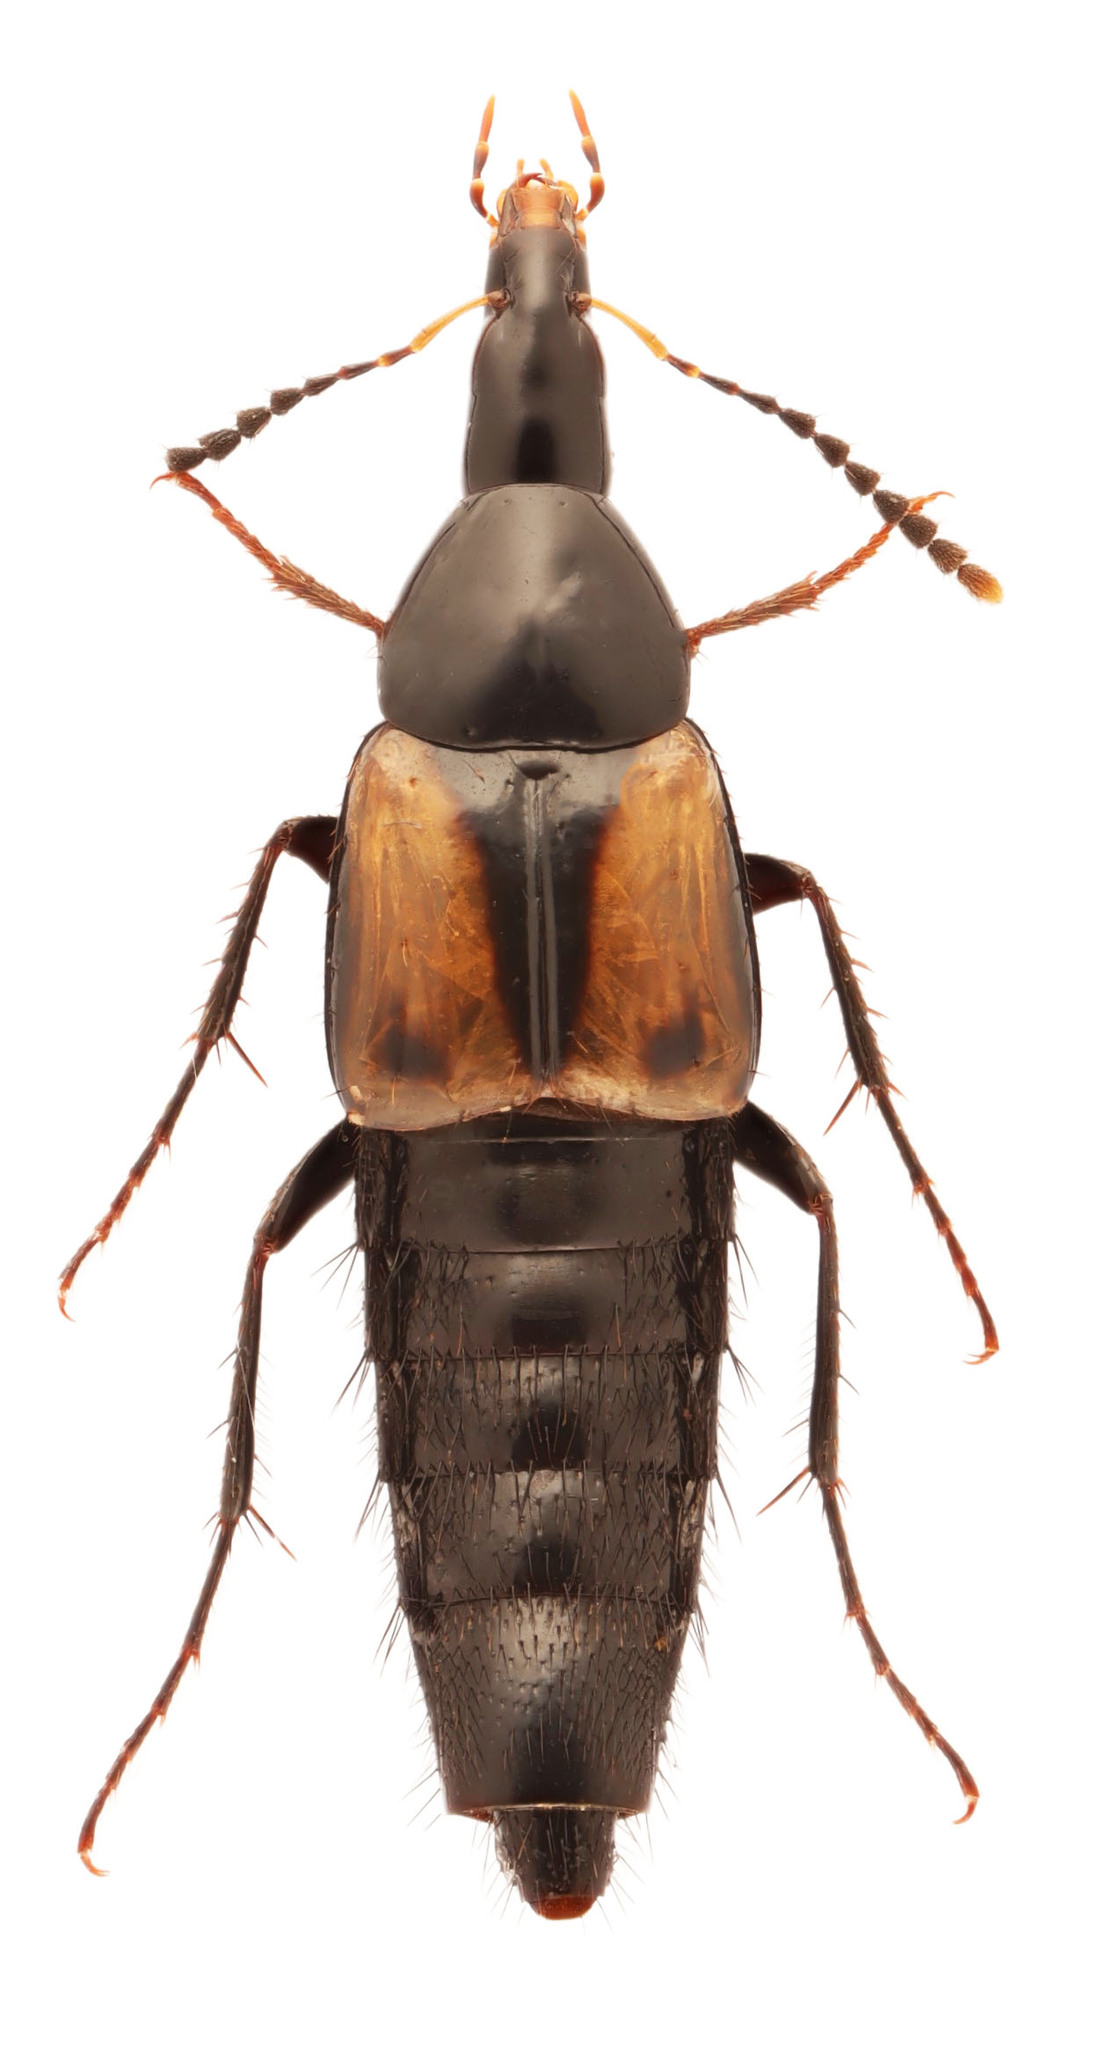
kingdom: Animalia
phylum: Arthropoda
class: Insecta
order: Coleoptera
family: Staphylinidae
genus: Bobitobus
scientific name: Bobitobus quaesitor
